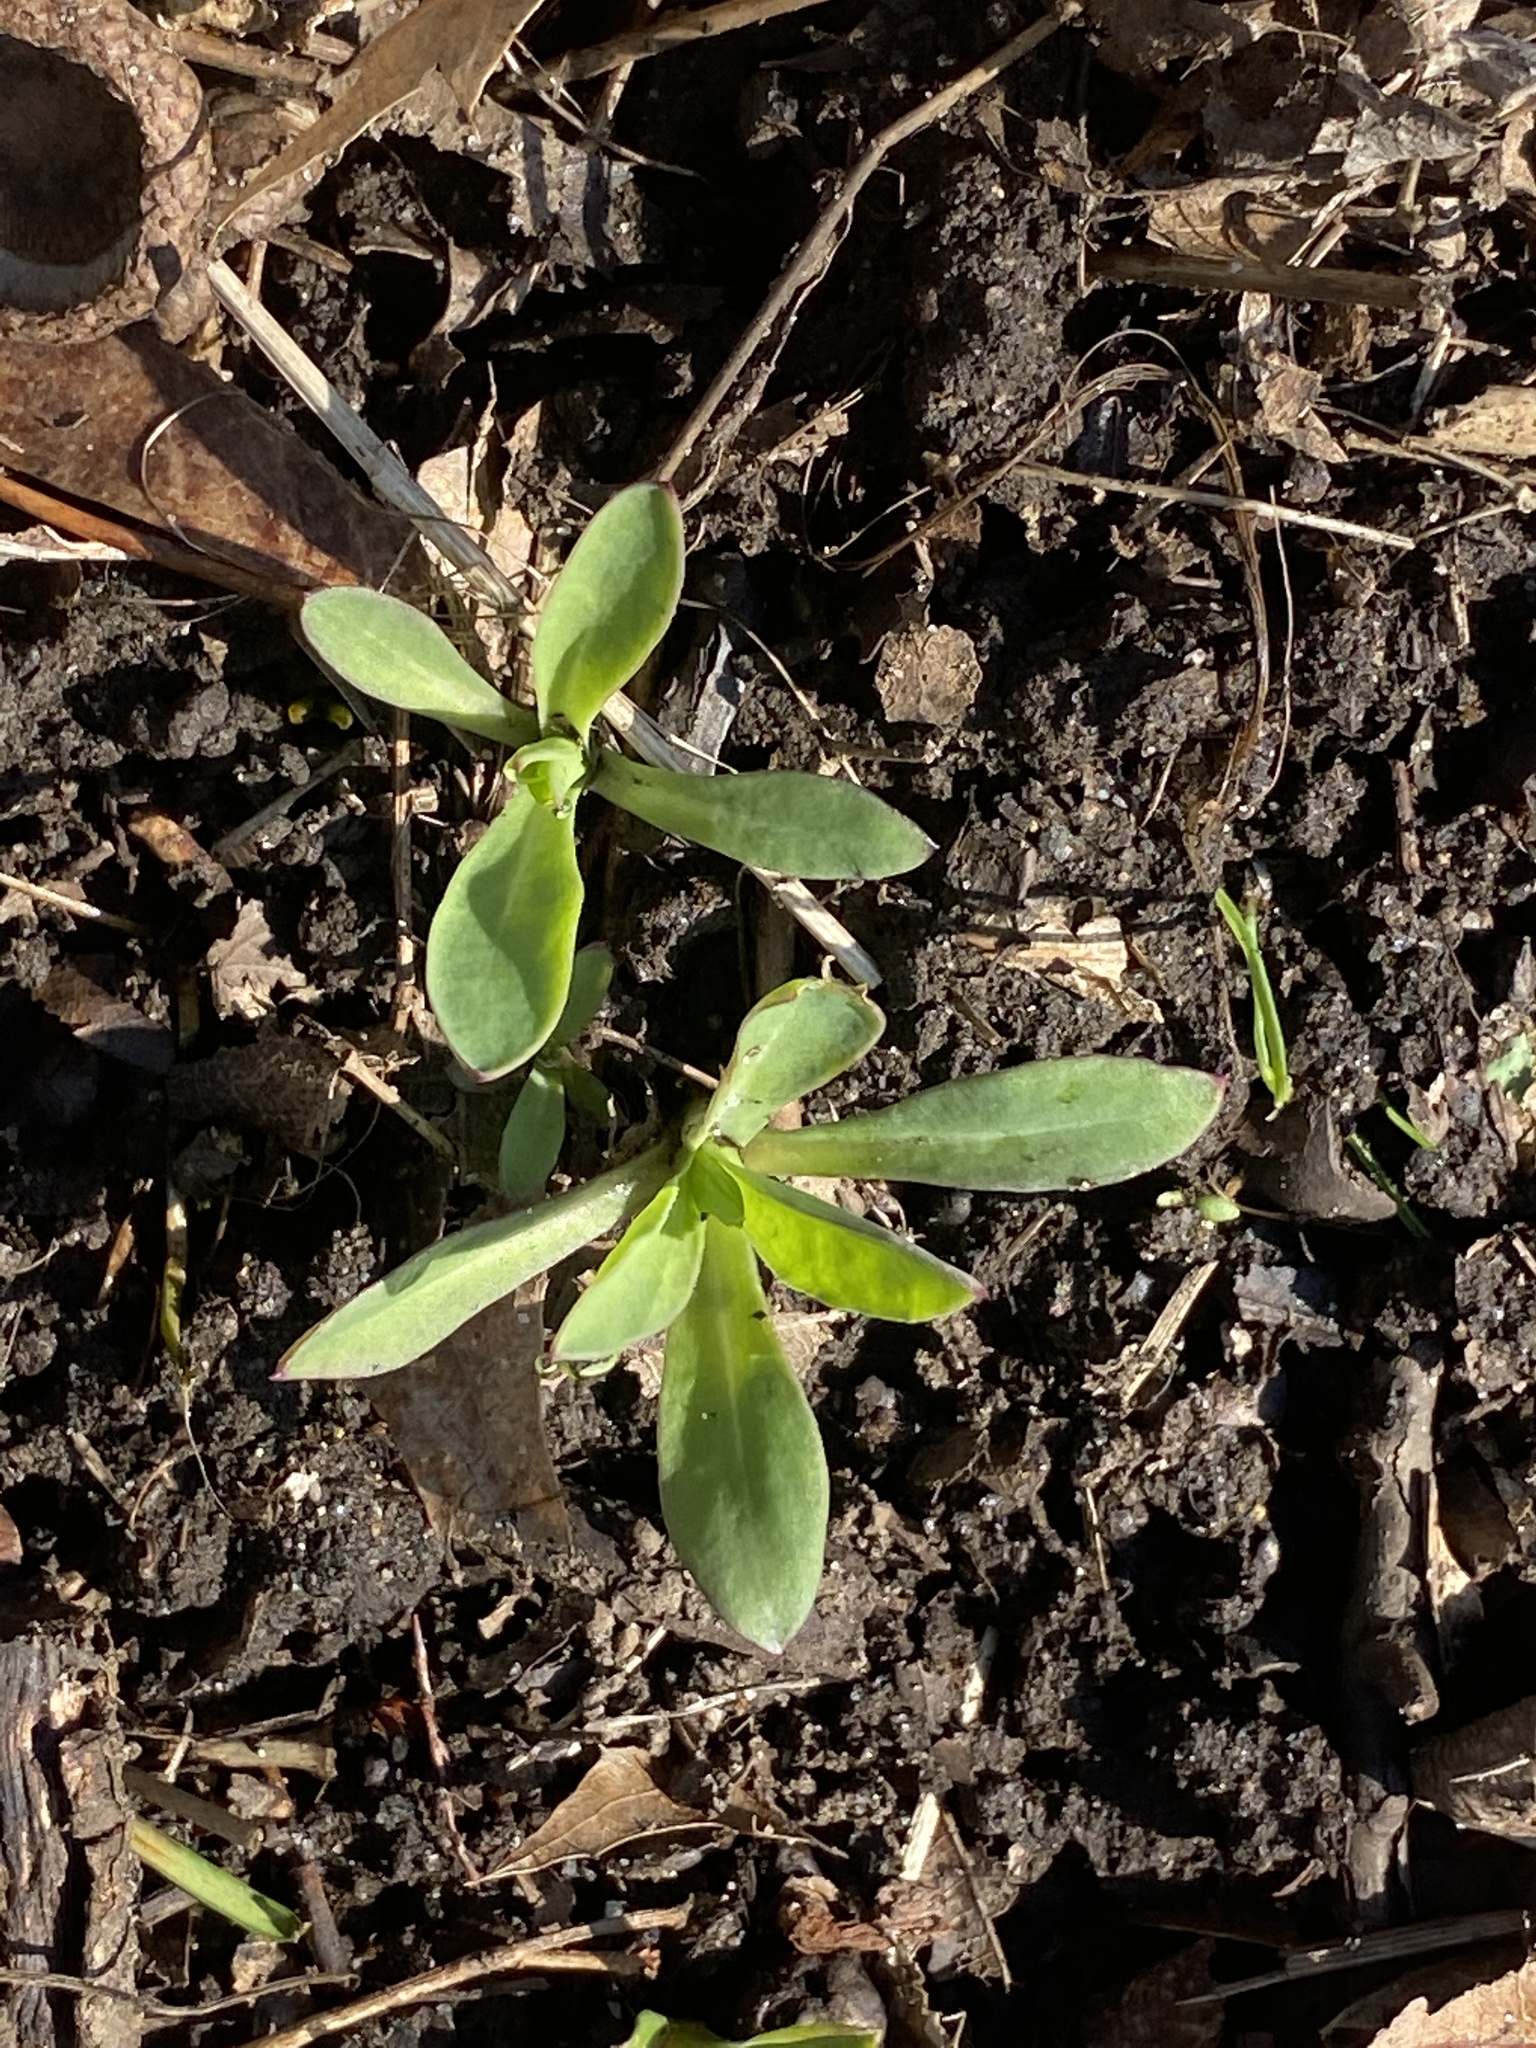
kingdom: Plantae
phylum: Tracheophyta
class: Magnoliopsida
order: Caryophyllales
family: Caryophyllaceae
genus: Silene
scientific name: Silene vulgaris
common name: Bladder campion
